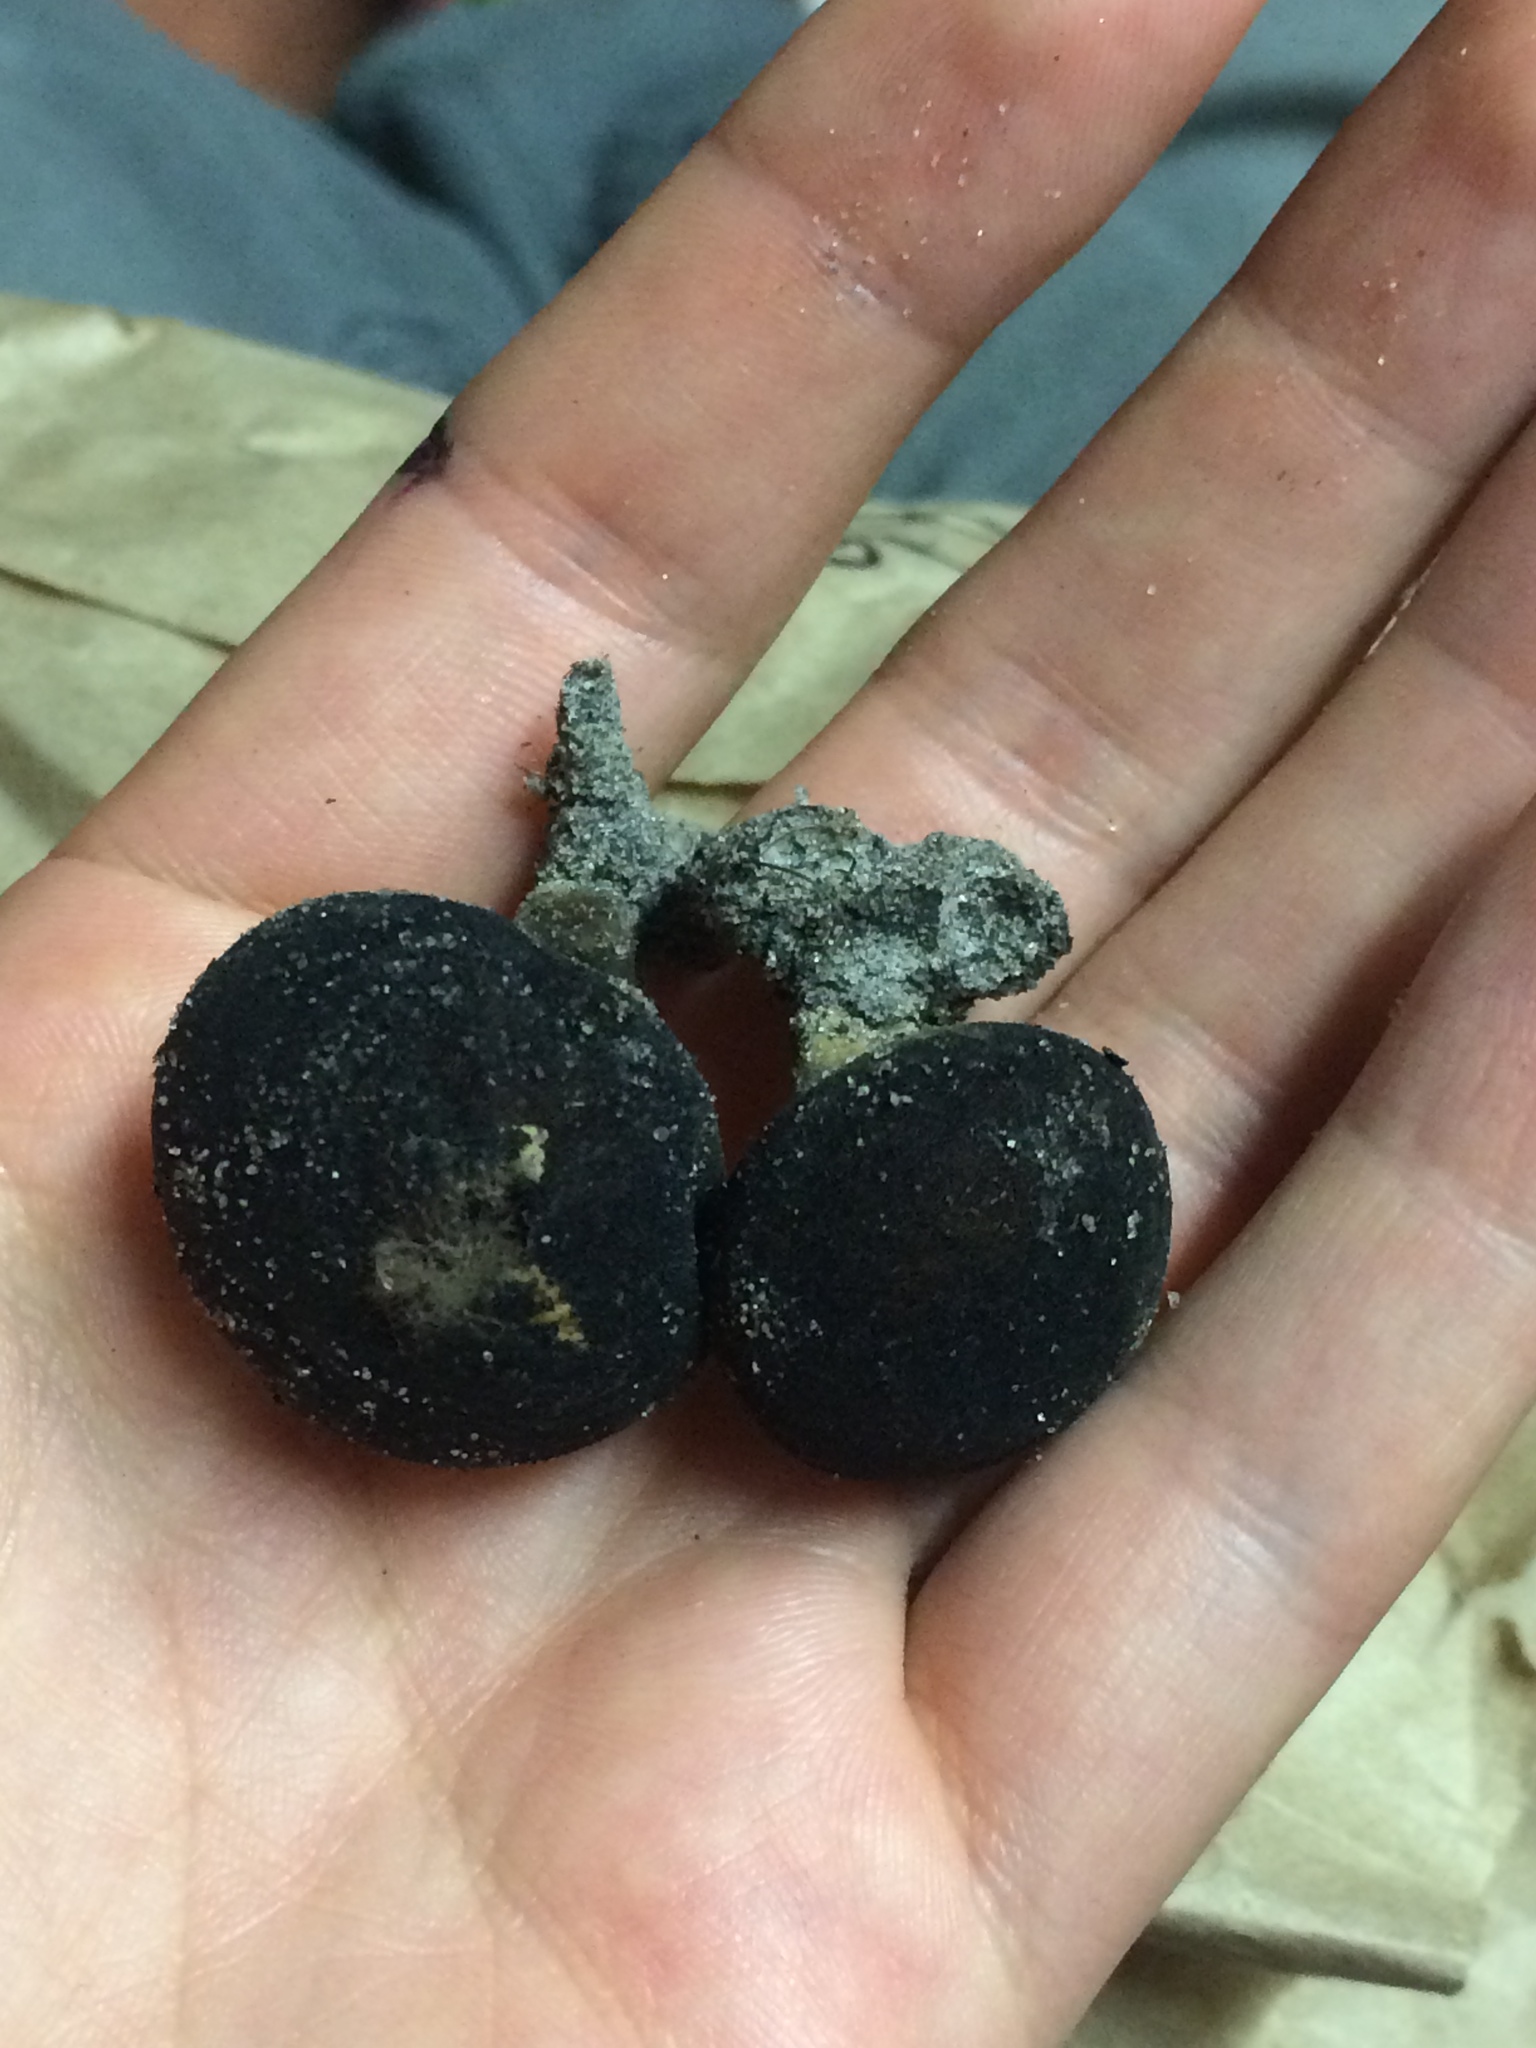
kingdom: Fungi
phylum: Basidiomycota
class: Agaricomycetes
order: Agaricales
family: Lycoperdaceae
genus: Lycoperdon
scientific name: Lycoperdon umbrinum
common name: Umber-brown puffball
